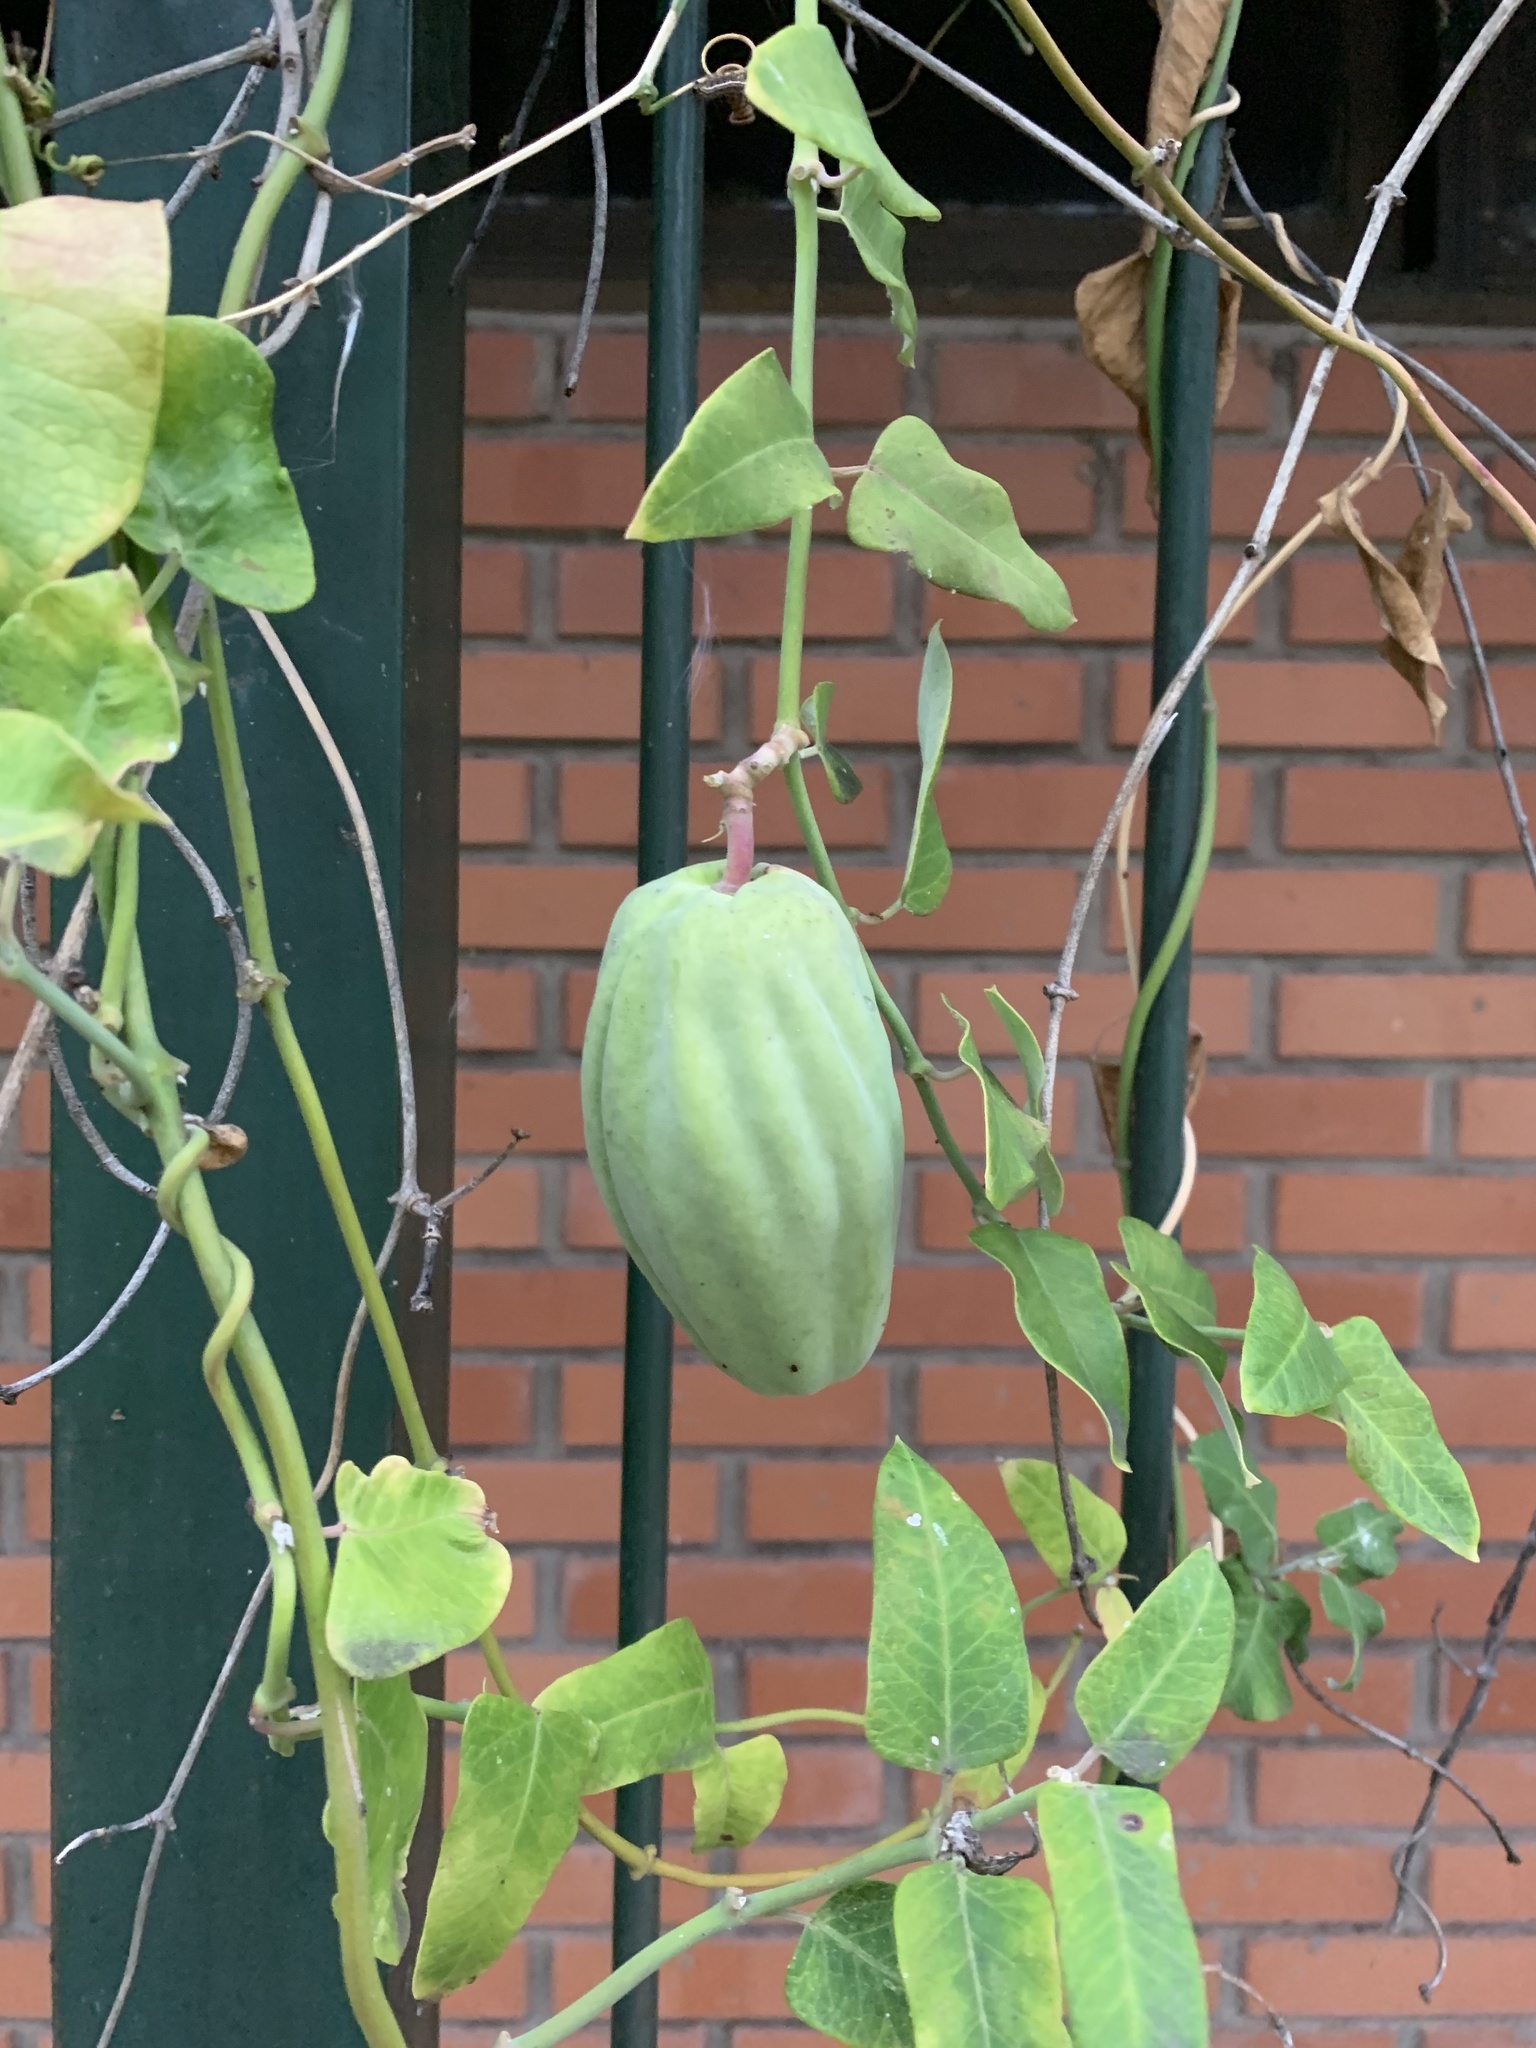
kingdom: Plantae
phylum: Tracheophyta
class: Magnoliopsida
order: Gentianales
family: Apocynaceae
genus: Araujia
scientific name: Araujia sericifera
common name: White bladderflower
